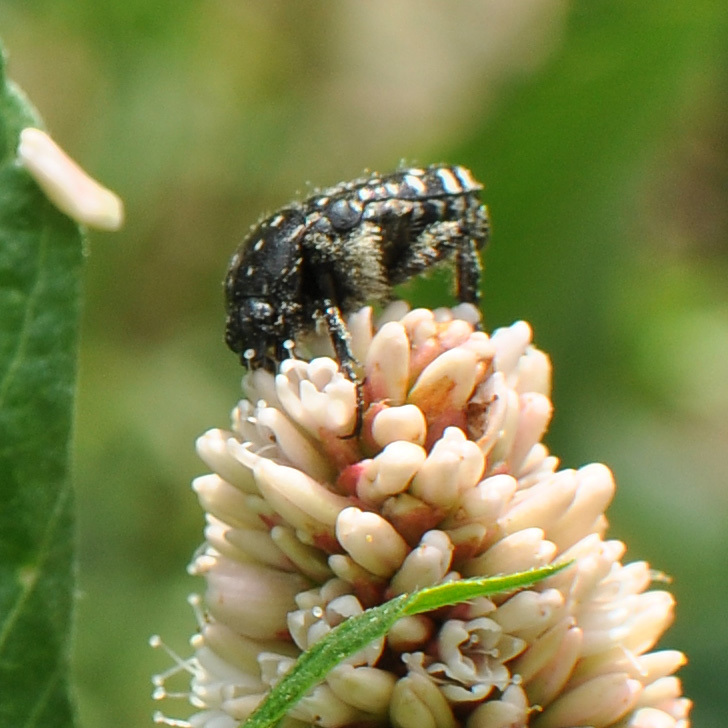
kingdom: Animalia
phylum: Arthropoda
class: Insecta
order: Coleoptera
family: Scarabaeidae
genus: Oxythyrea
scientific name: Oxythyrea funesta
